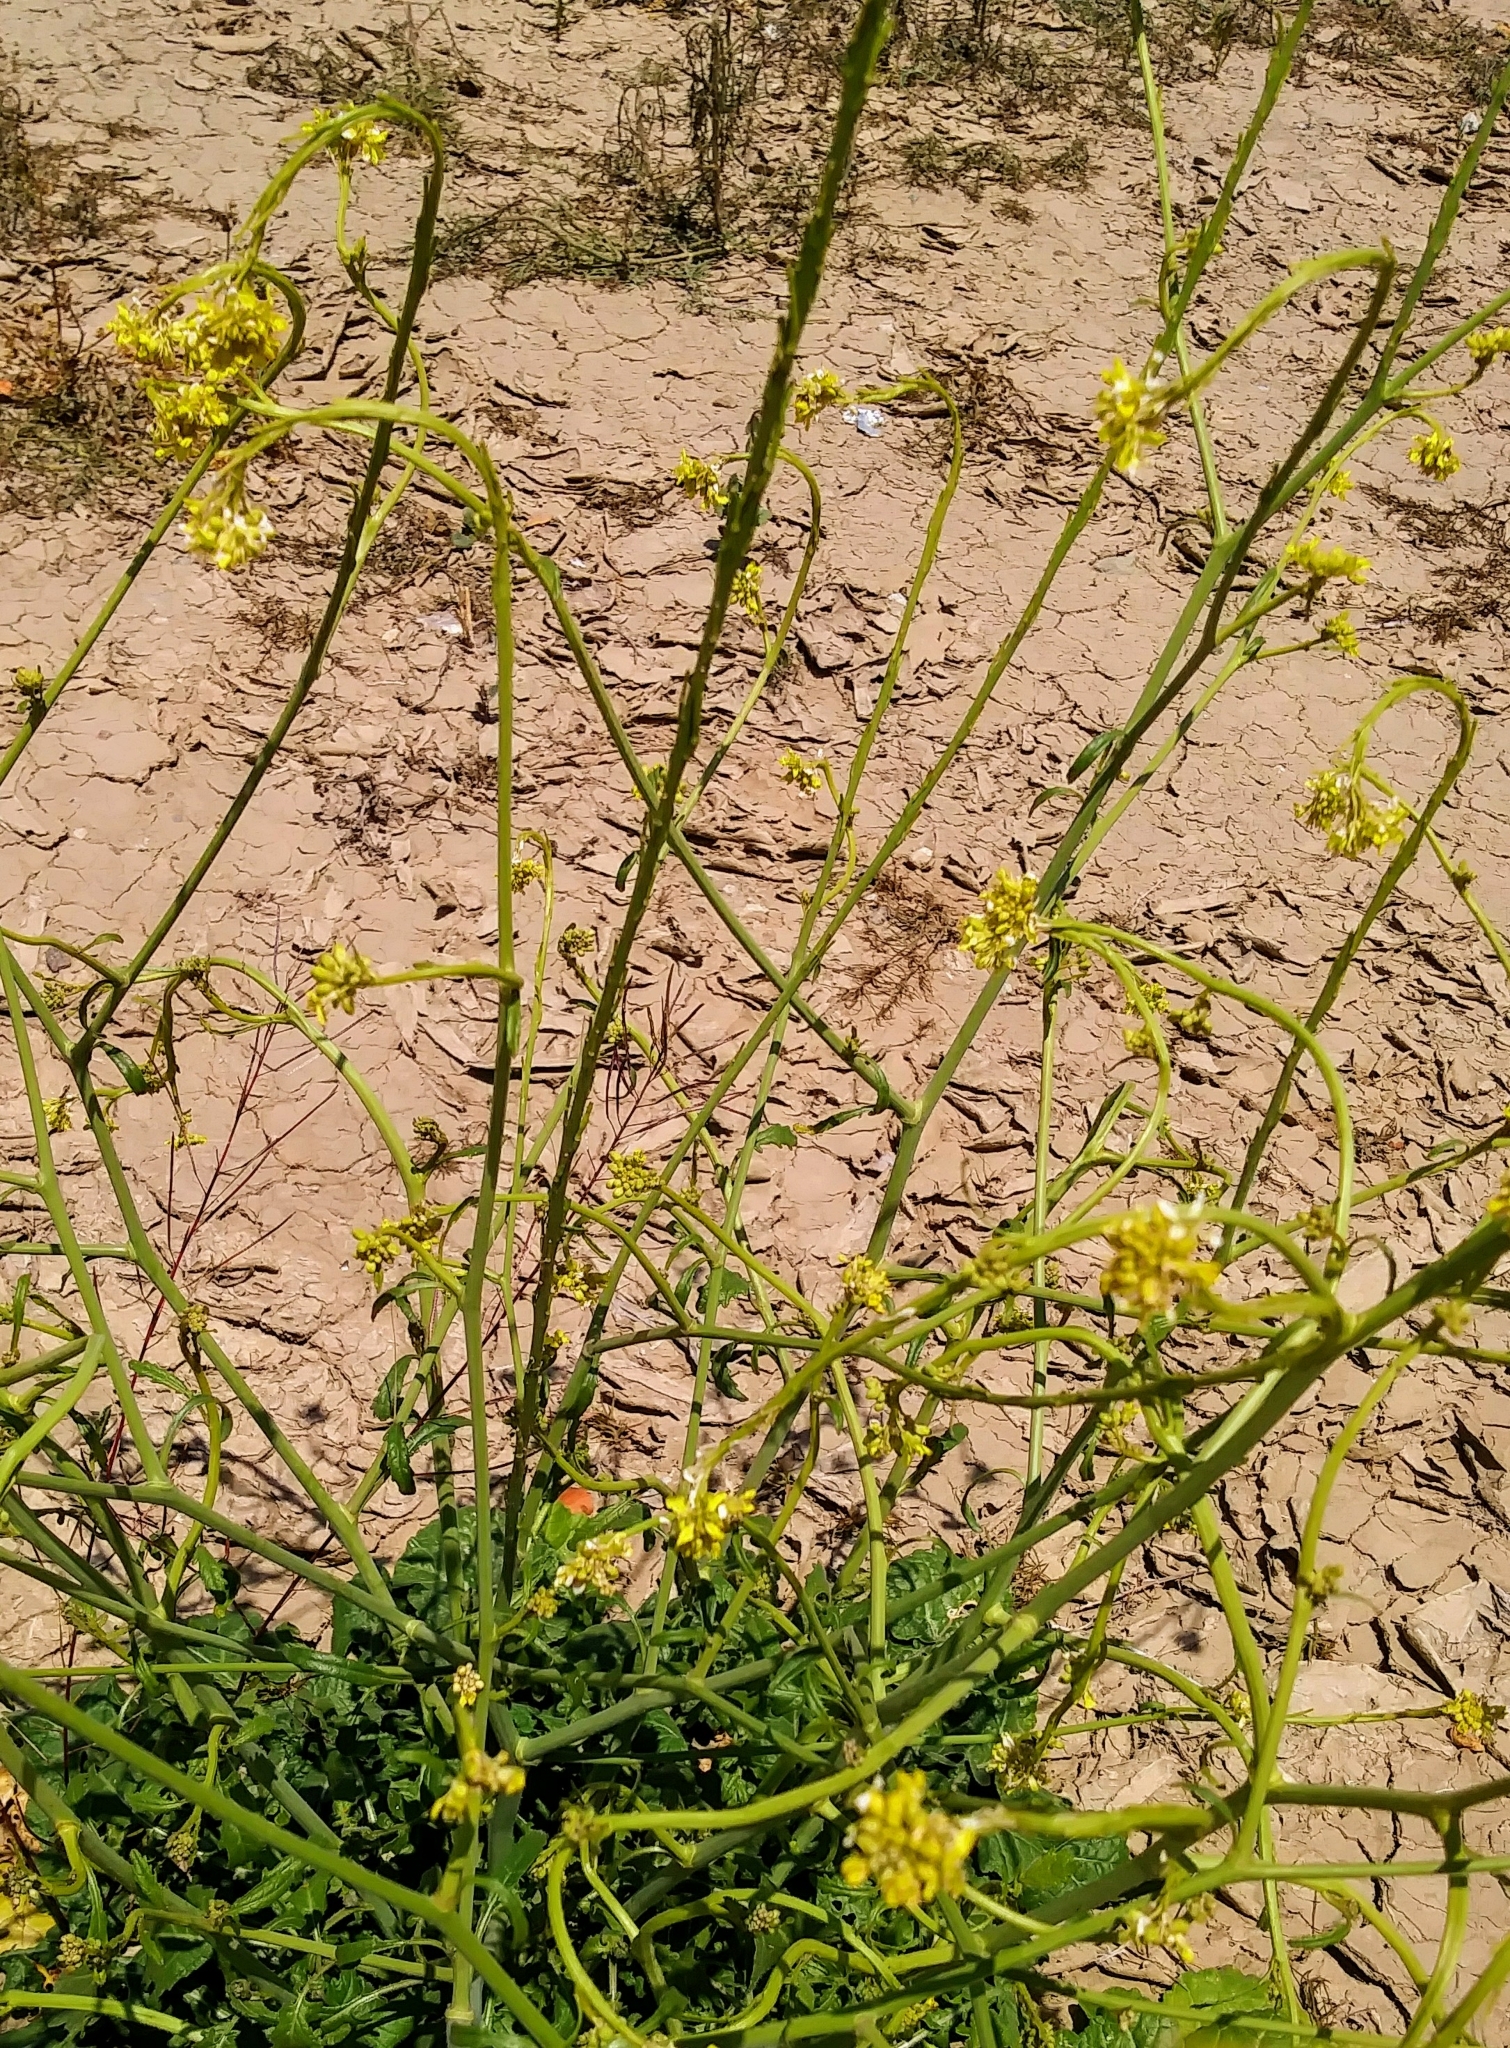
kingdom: Plantae
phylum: Tracheophyta
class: Magnoliopsida
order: Brassicales
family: Brassicaceae
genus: Sisymbrium
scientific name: Sisymbrium orientale
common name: Eastern rocket
